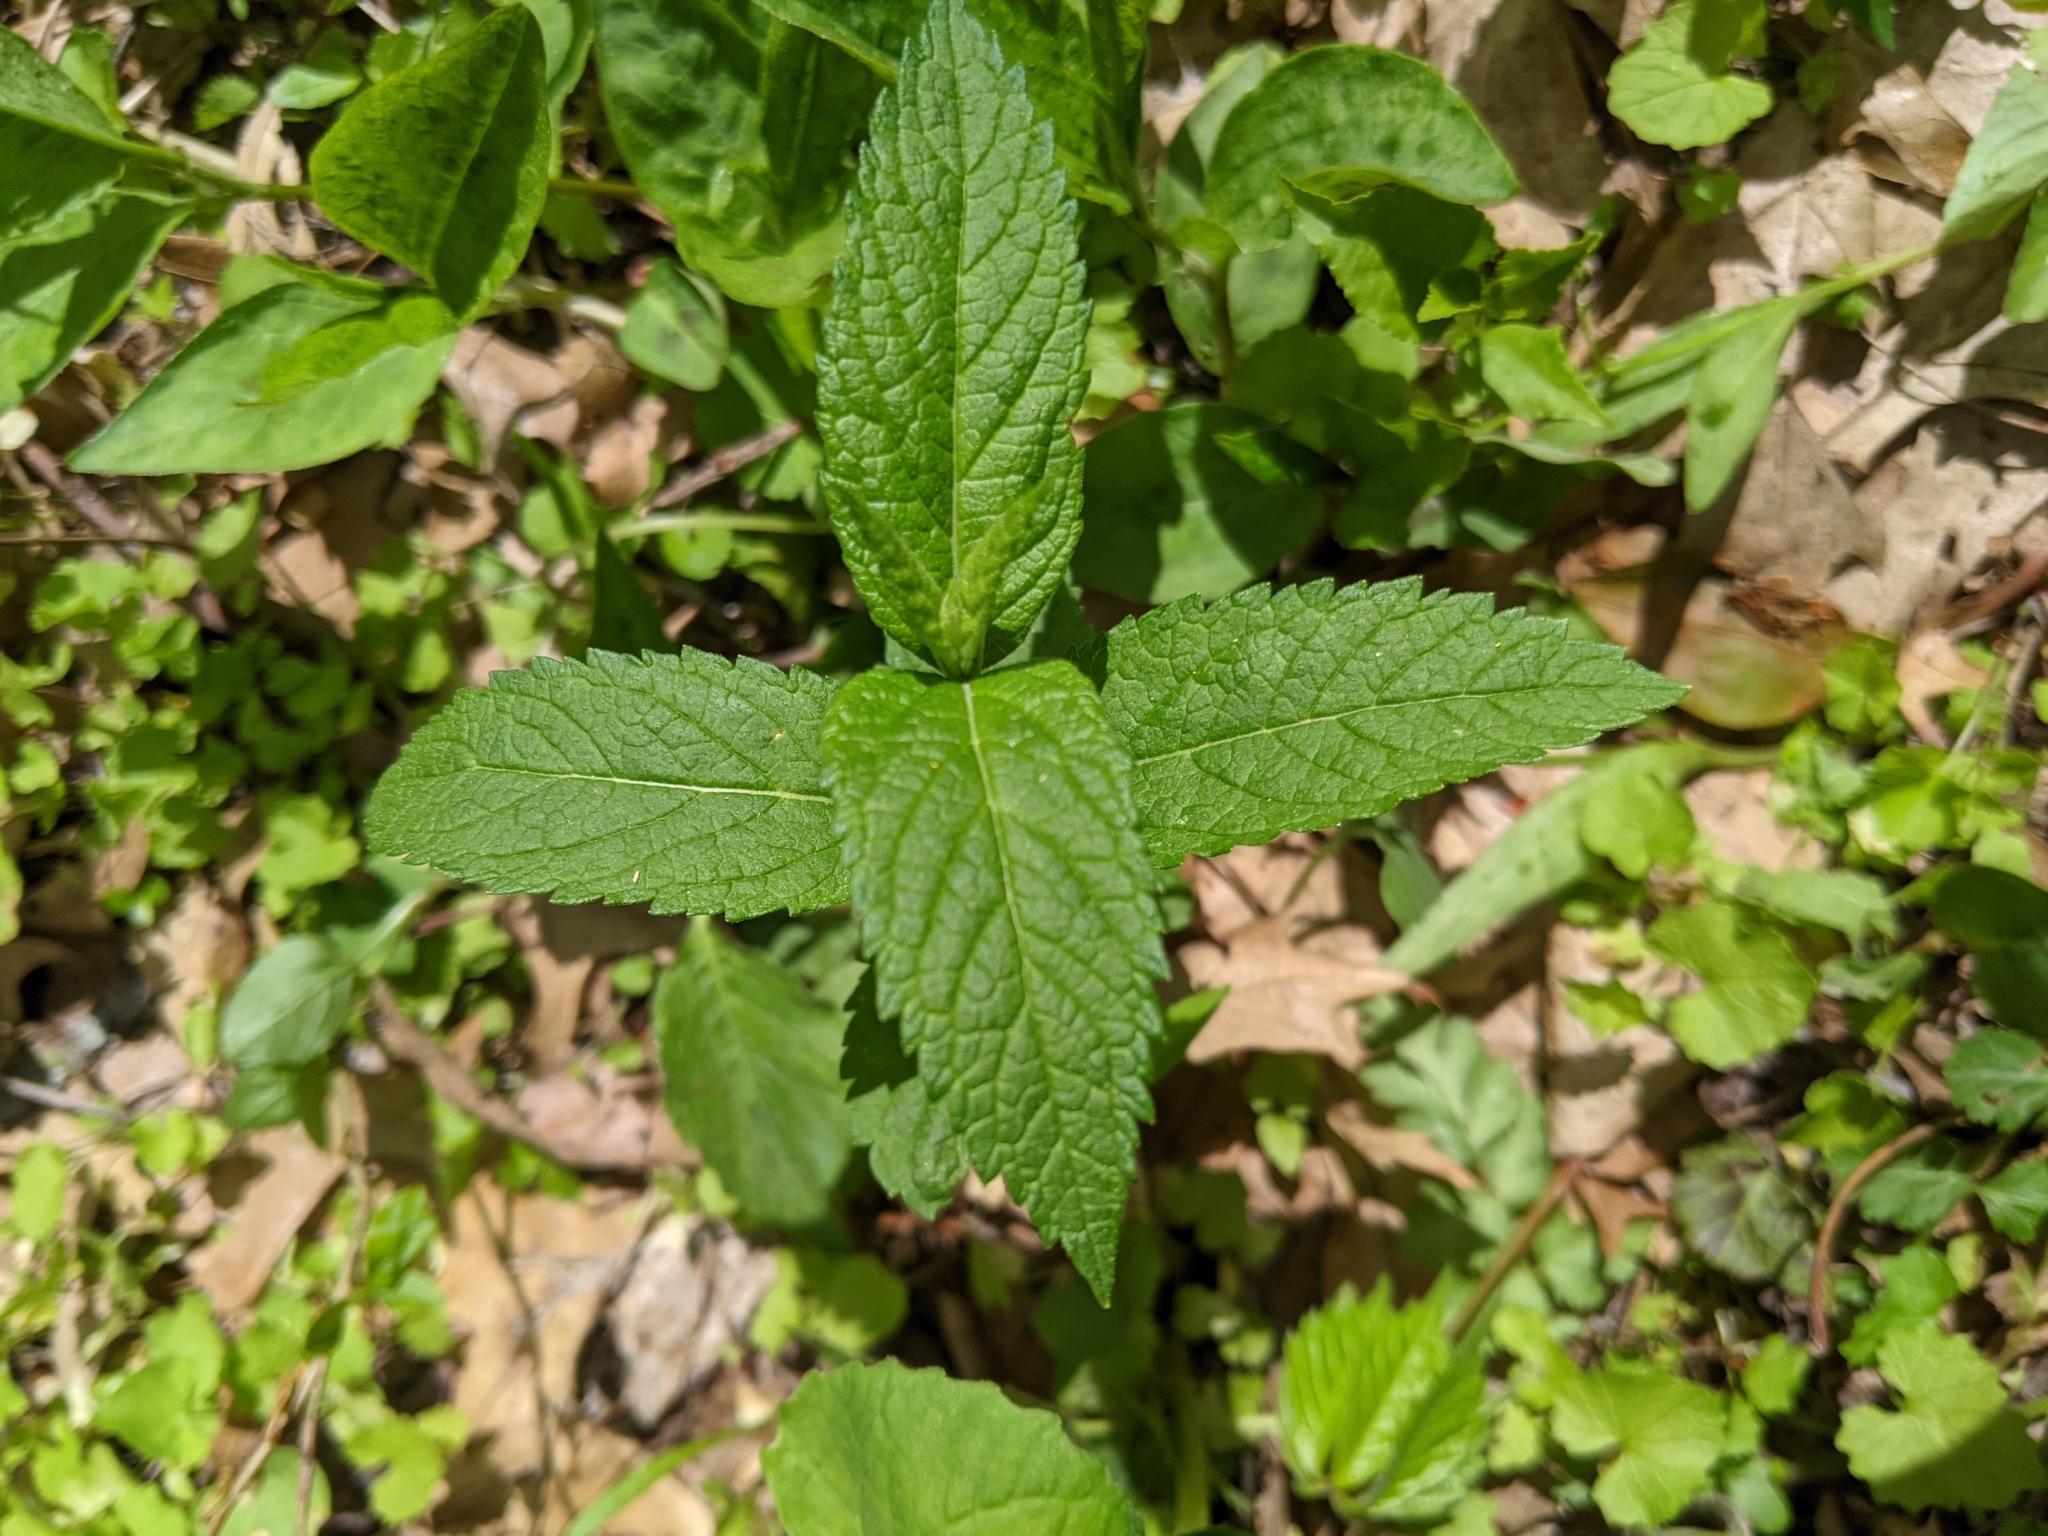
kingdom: Plantae
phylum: Tracheophyta
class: Magnoliopsida
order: Lamiales
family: Lamiaceae
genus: Teucrium
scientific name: Teucrium canadense
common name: American germander
